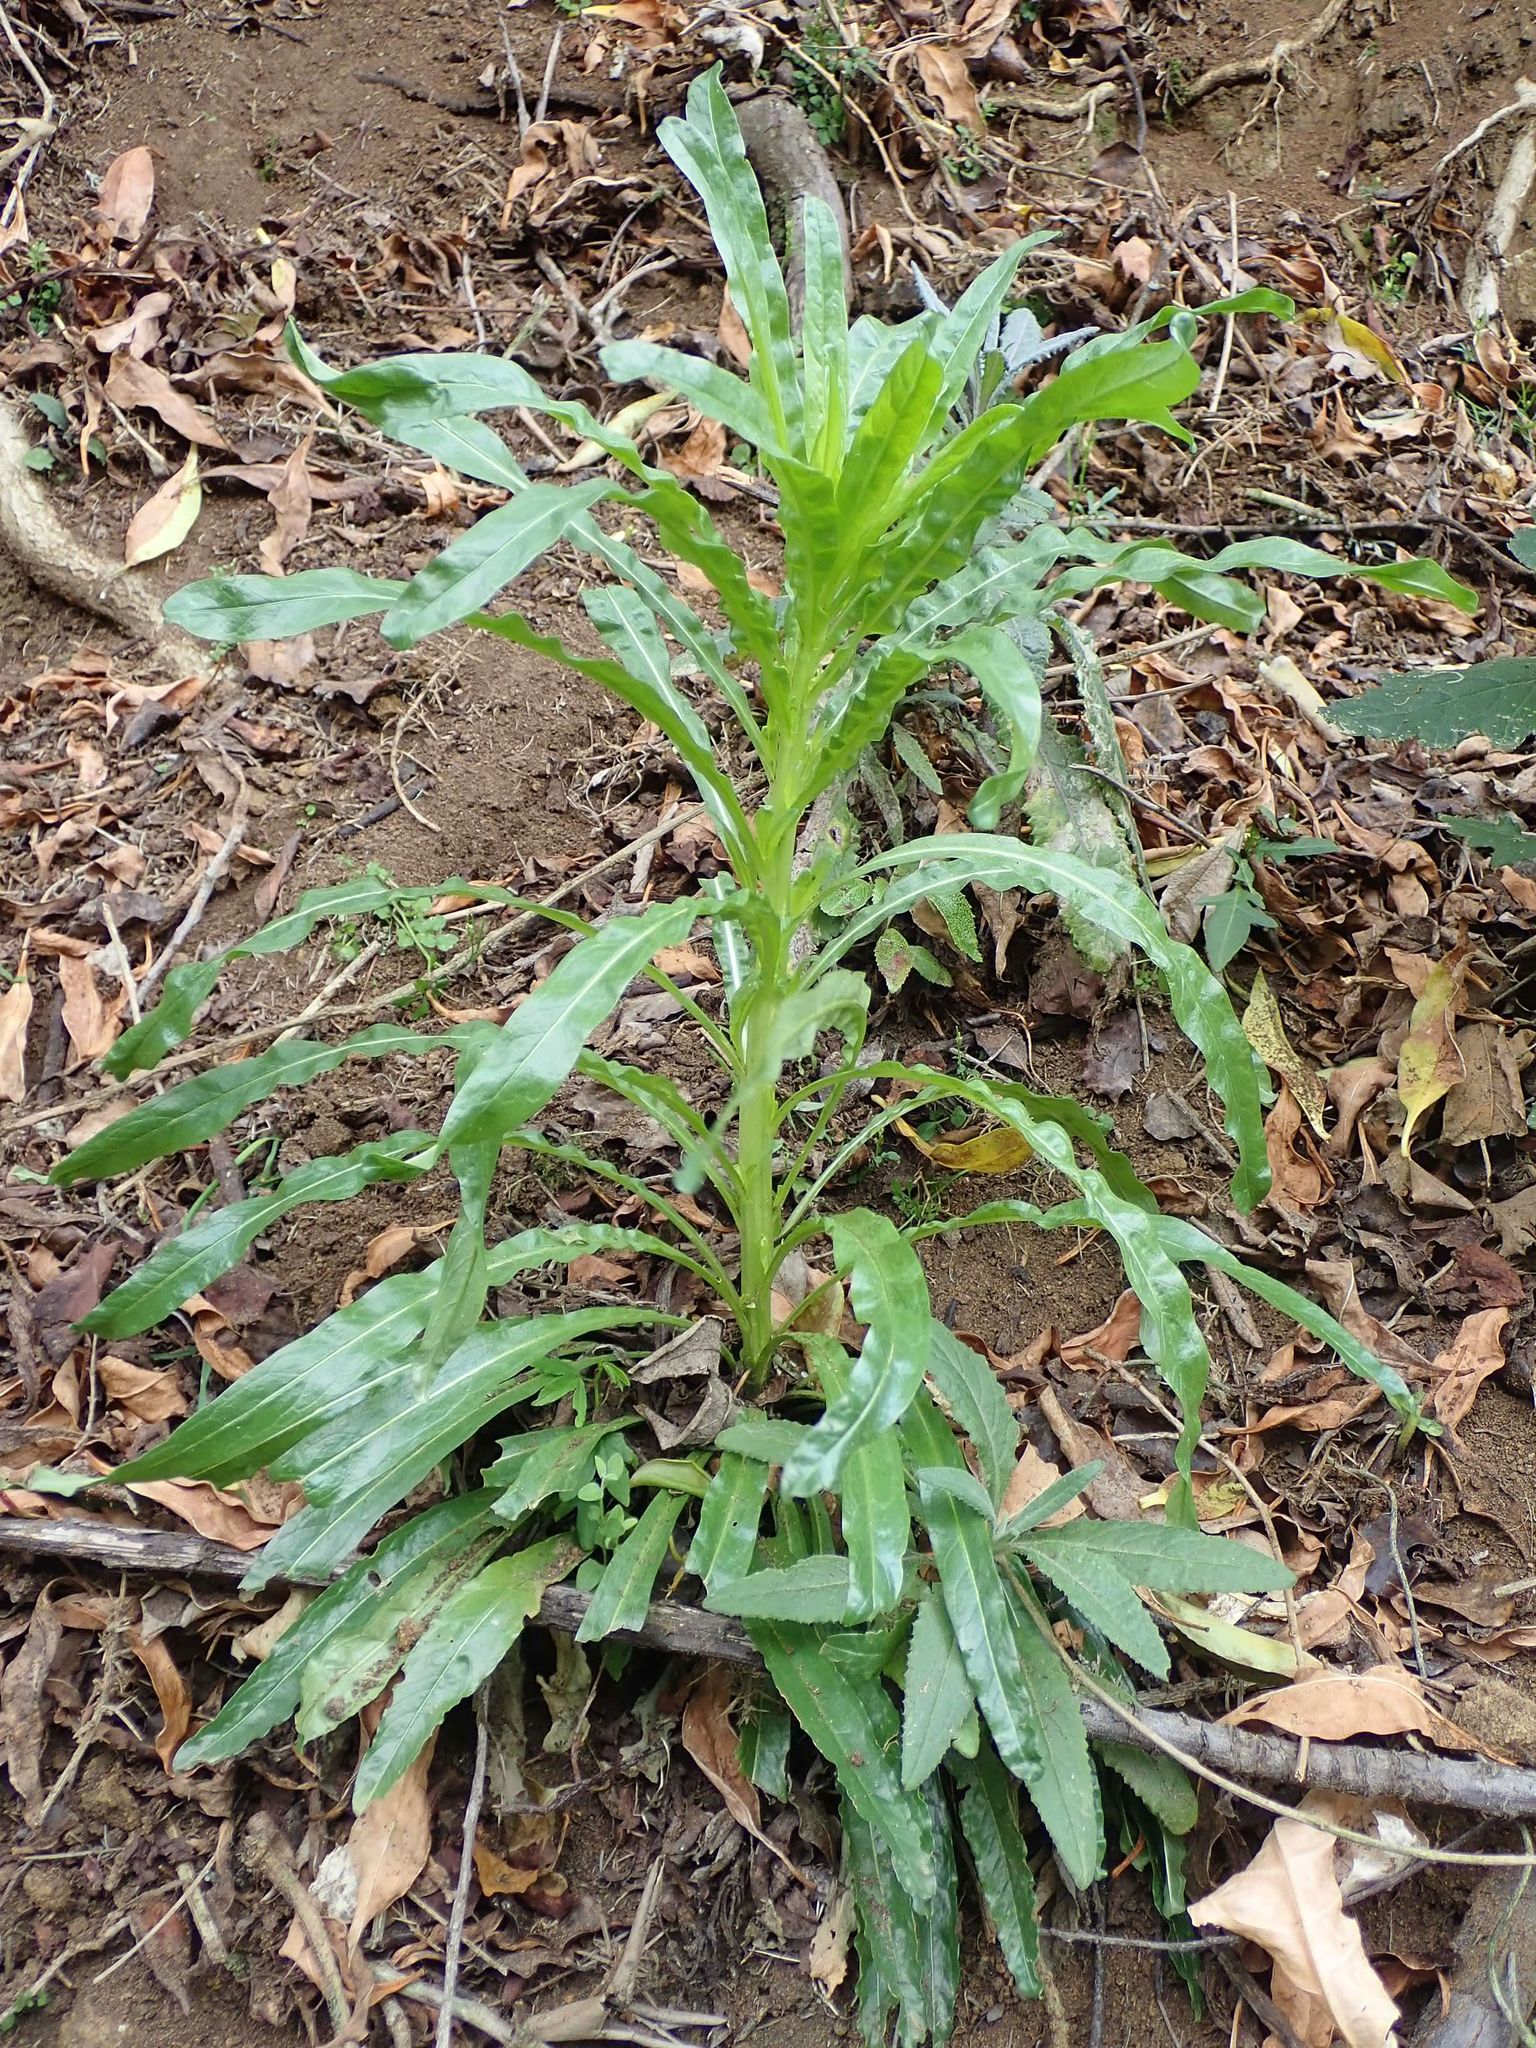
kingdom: Plantae
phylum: Tracheophyta
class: Magnoliopsida
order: Brassicales
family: Resedaceae
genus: Reseda
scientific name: Reseda luteola
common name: Weld
